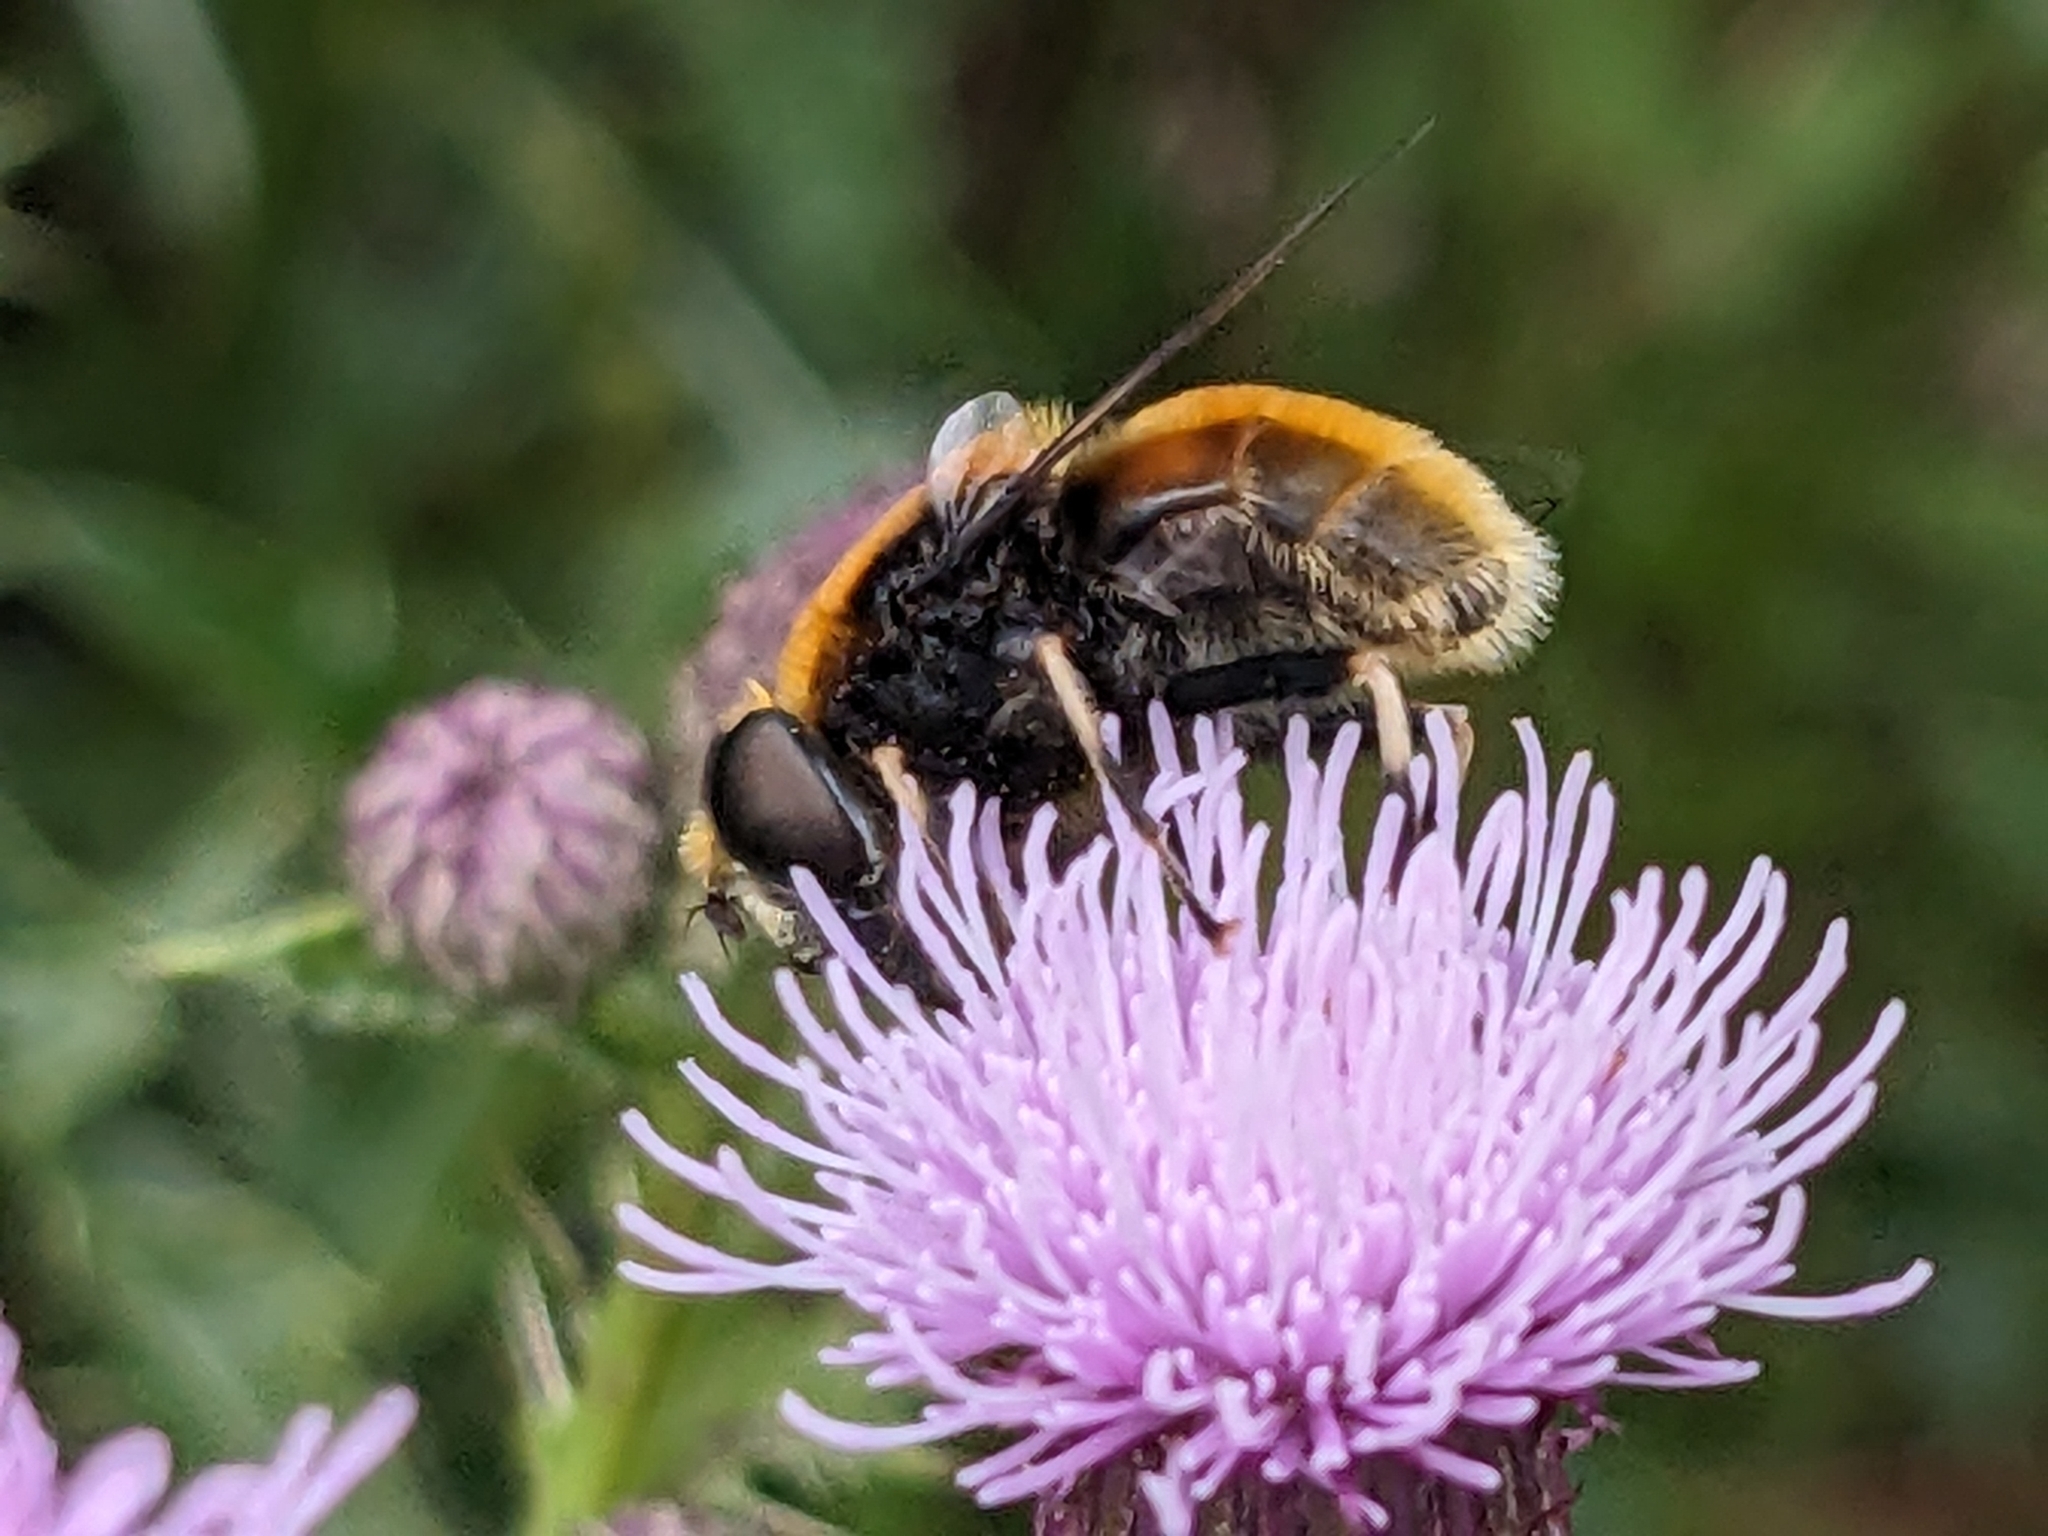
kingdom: Animalia
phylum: Arthropoda
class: Insecta
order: Diptera
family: Syrphidae
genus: Eristalis
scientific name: Eristalis intricaria
